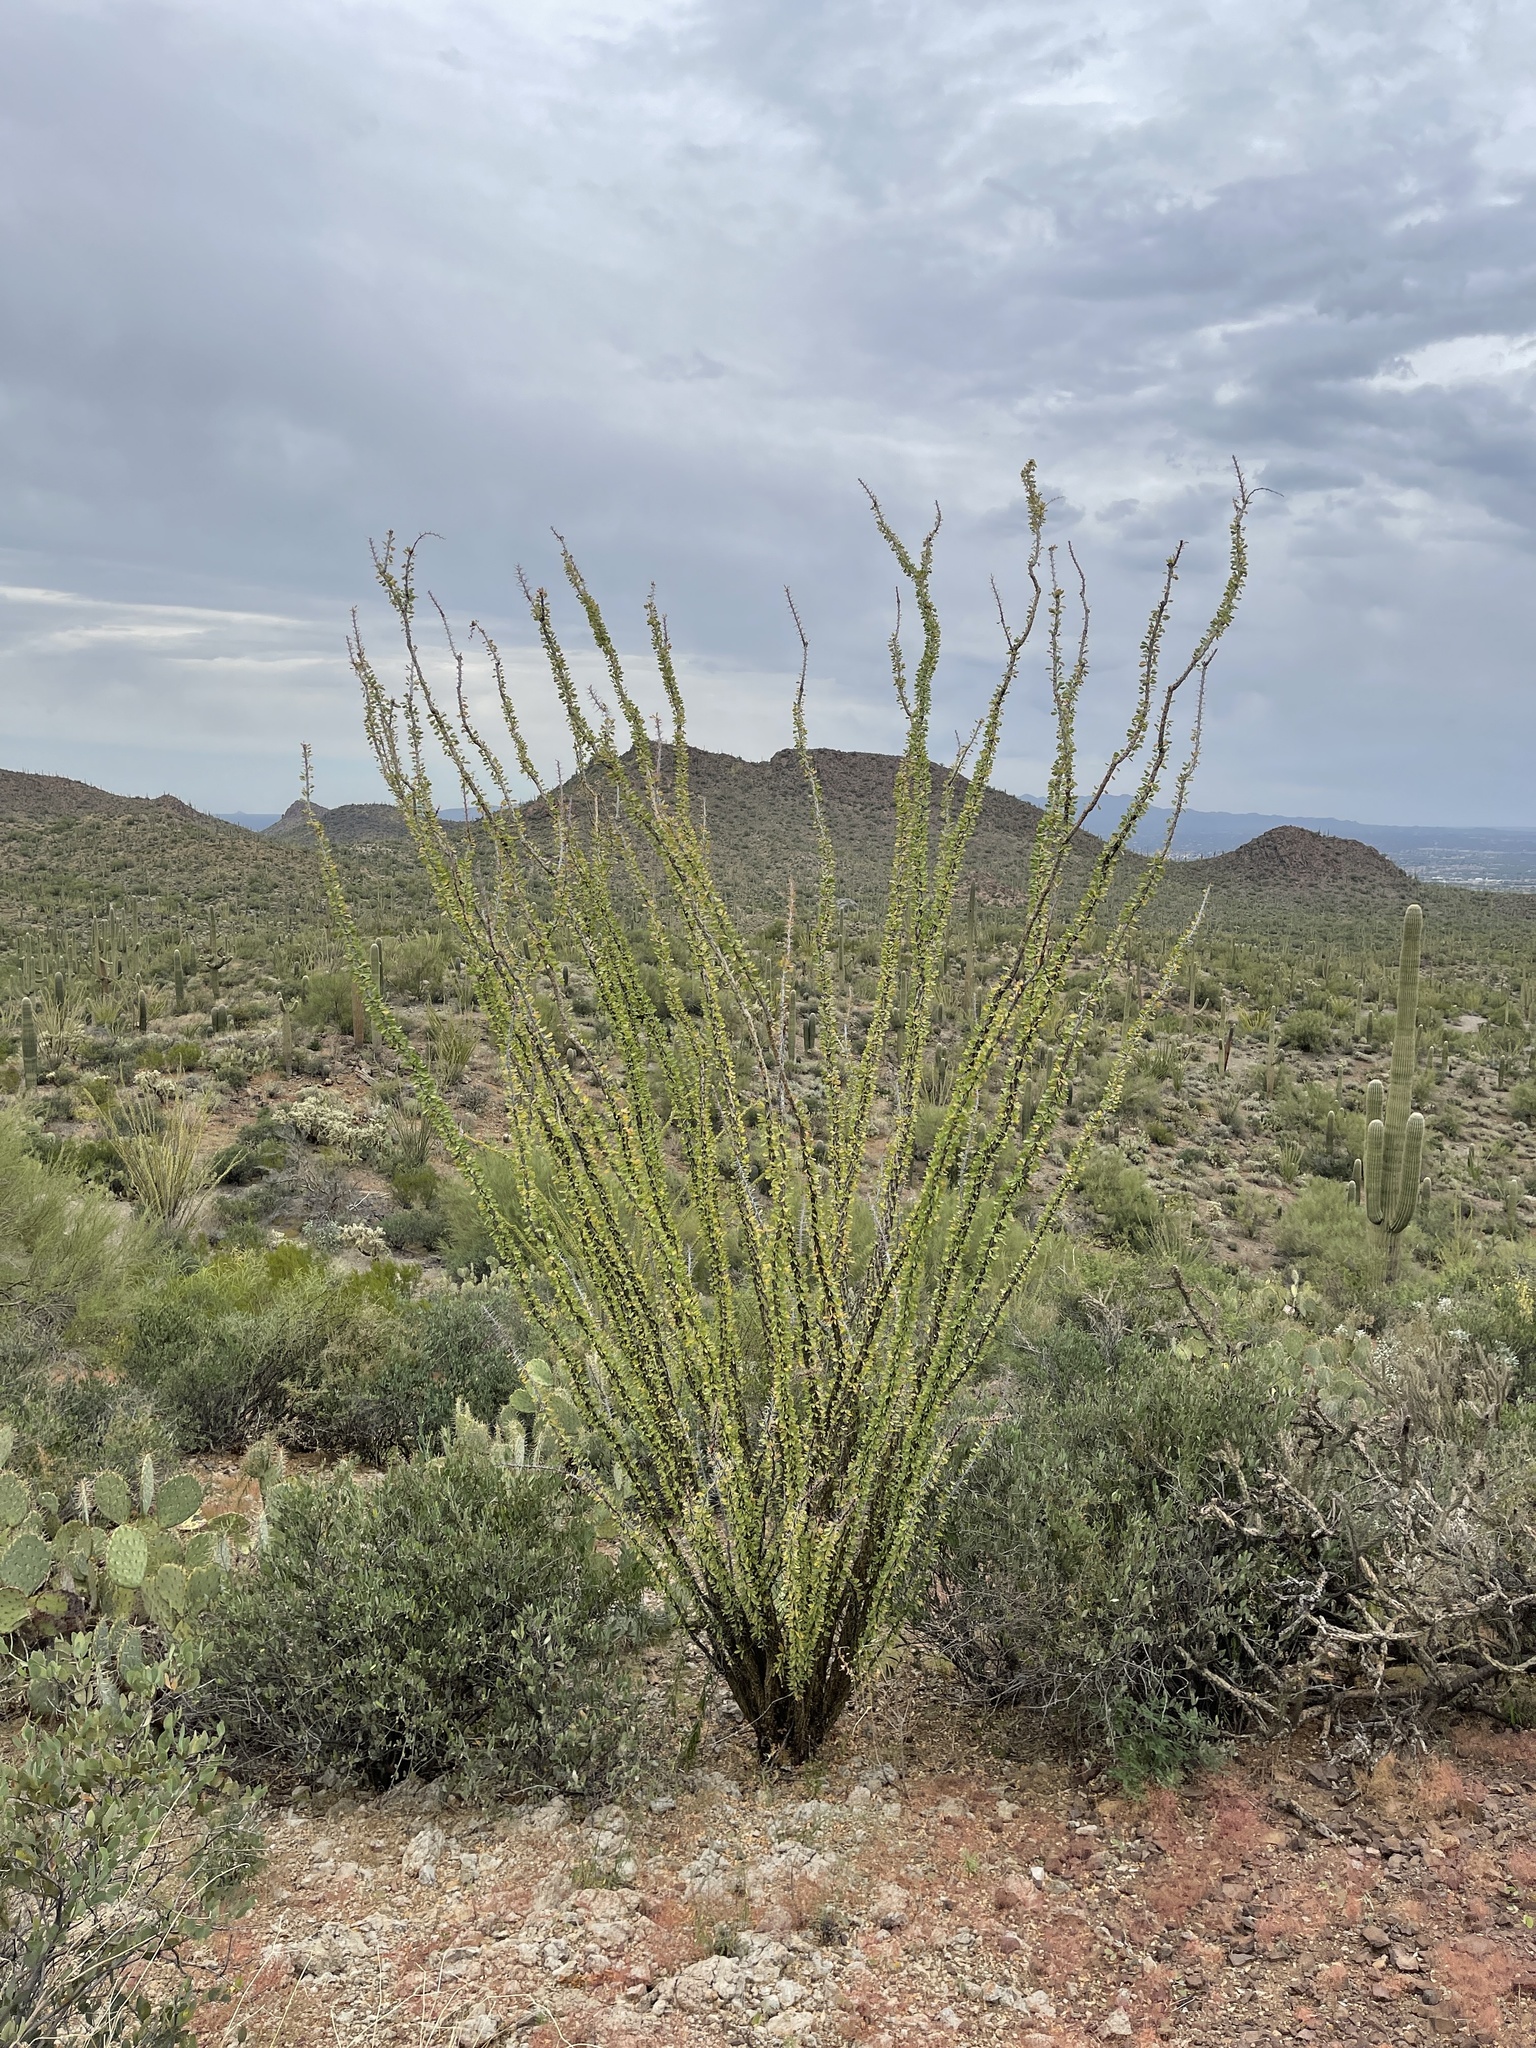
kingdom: Plantae
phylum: Tracheophyta
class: Magnoliopsida
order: Ericales
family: Fouquieriaceae
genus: Fouquieria
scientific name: Fouquieria splendens
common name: Vine-cactus
